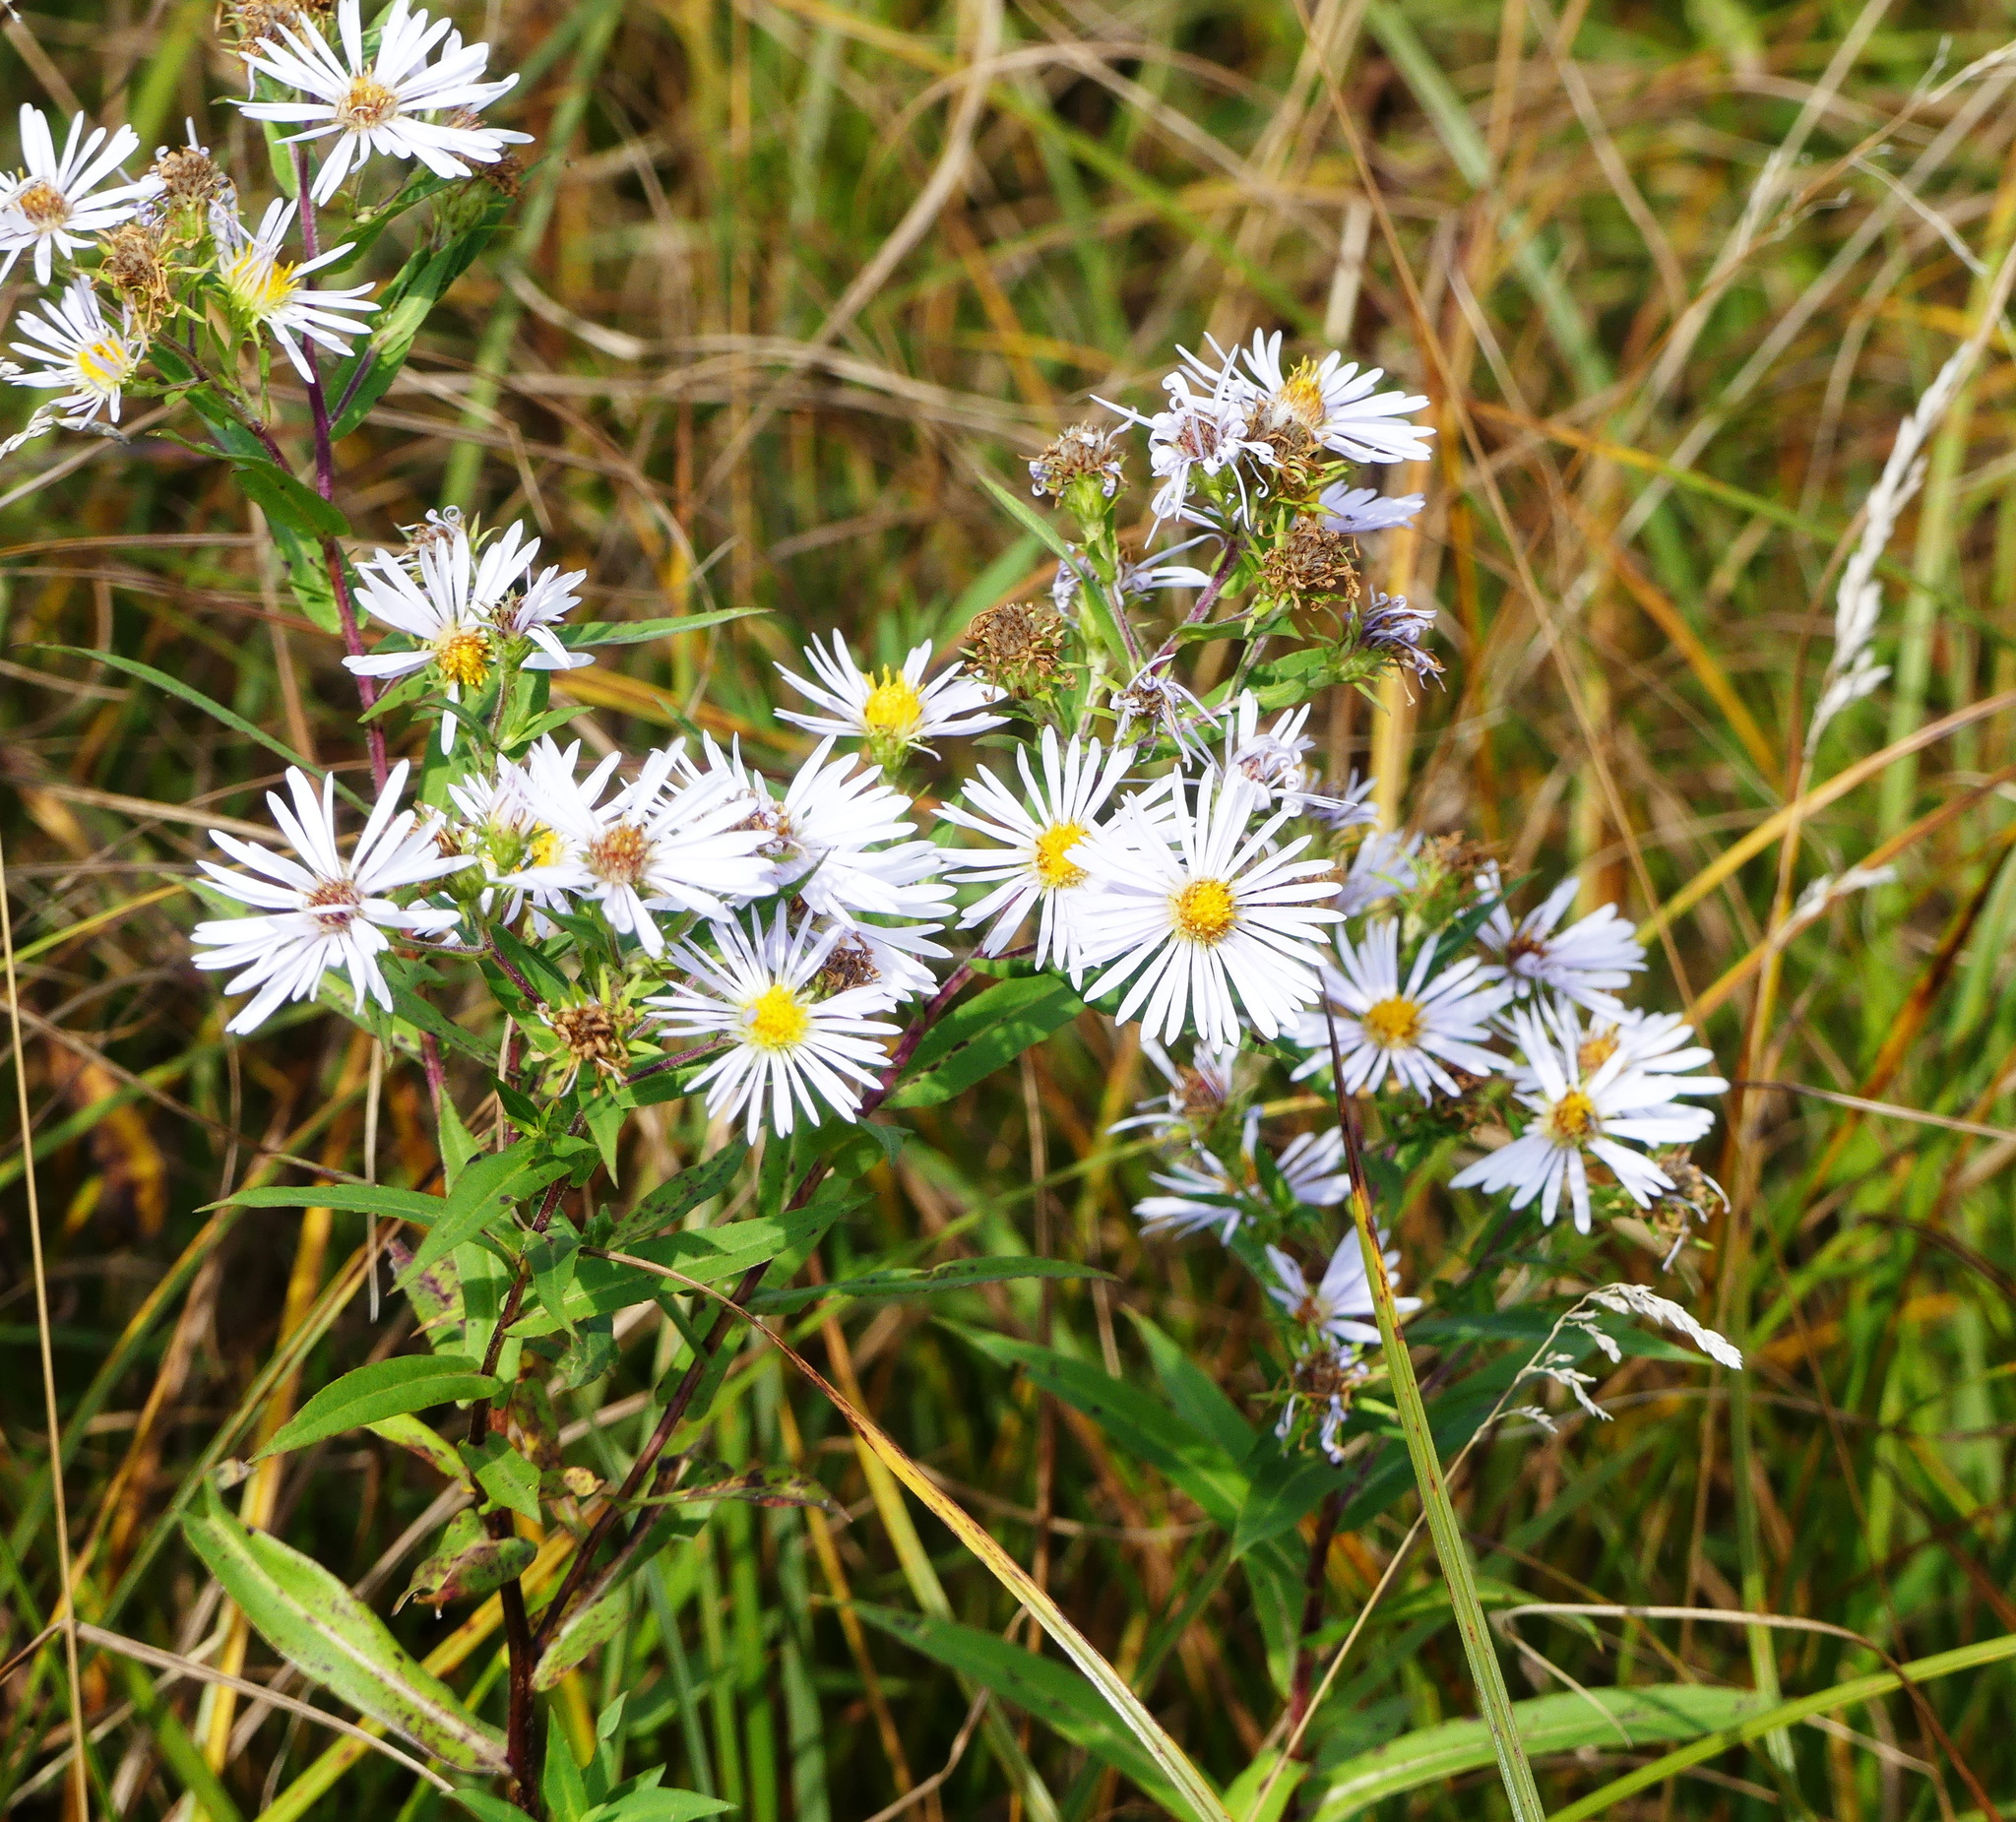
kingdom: Plantae
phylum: Tracheophyta
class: Magnoliopsida
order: Asterales
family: Asteraceae
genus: Symphyotrichum
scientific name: Symphyotrichum puniceum
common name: Bog aster
